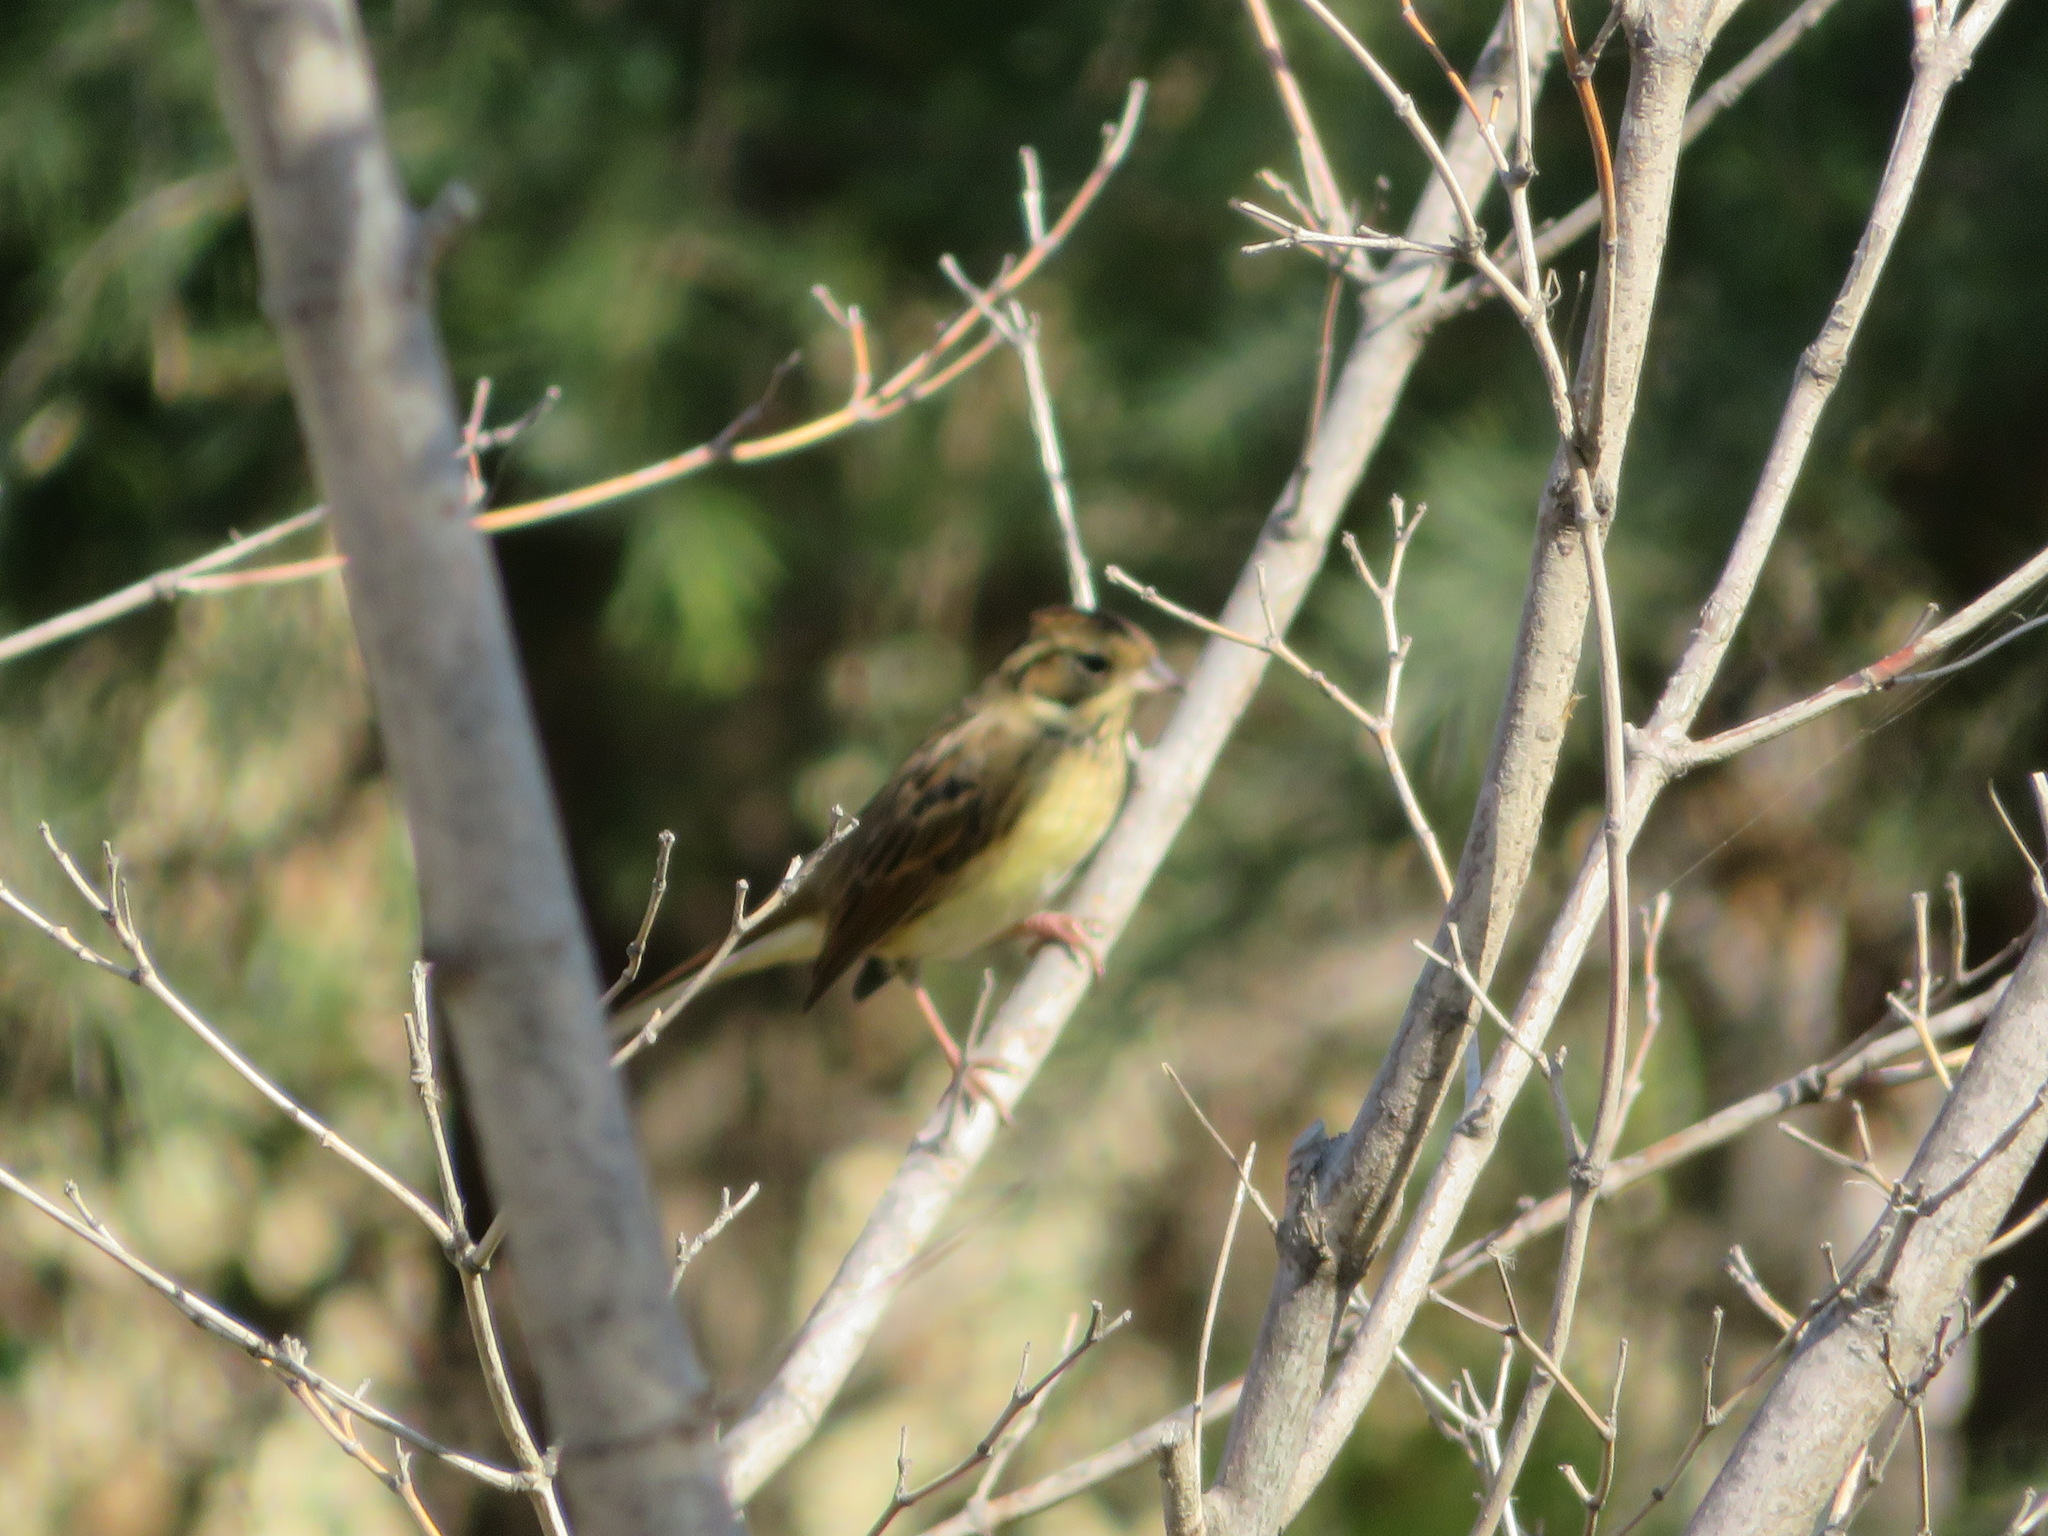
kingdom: Animalia
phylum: Chordata
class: Aves
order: Passeriformes
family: Emberizidae
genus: Emberiza
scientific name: Emberiza aureola
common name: Yellow-breasted bunting
